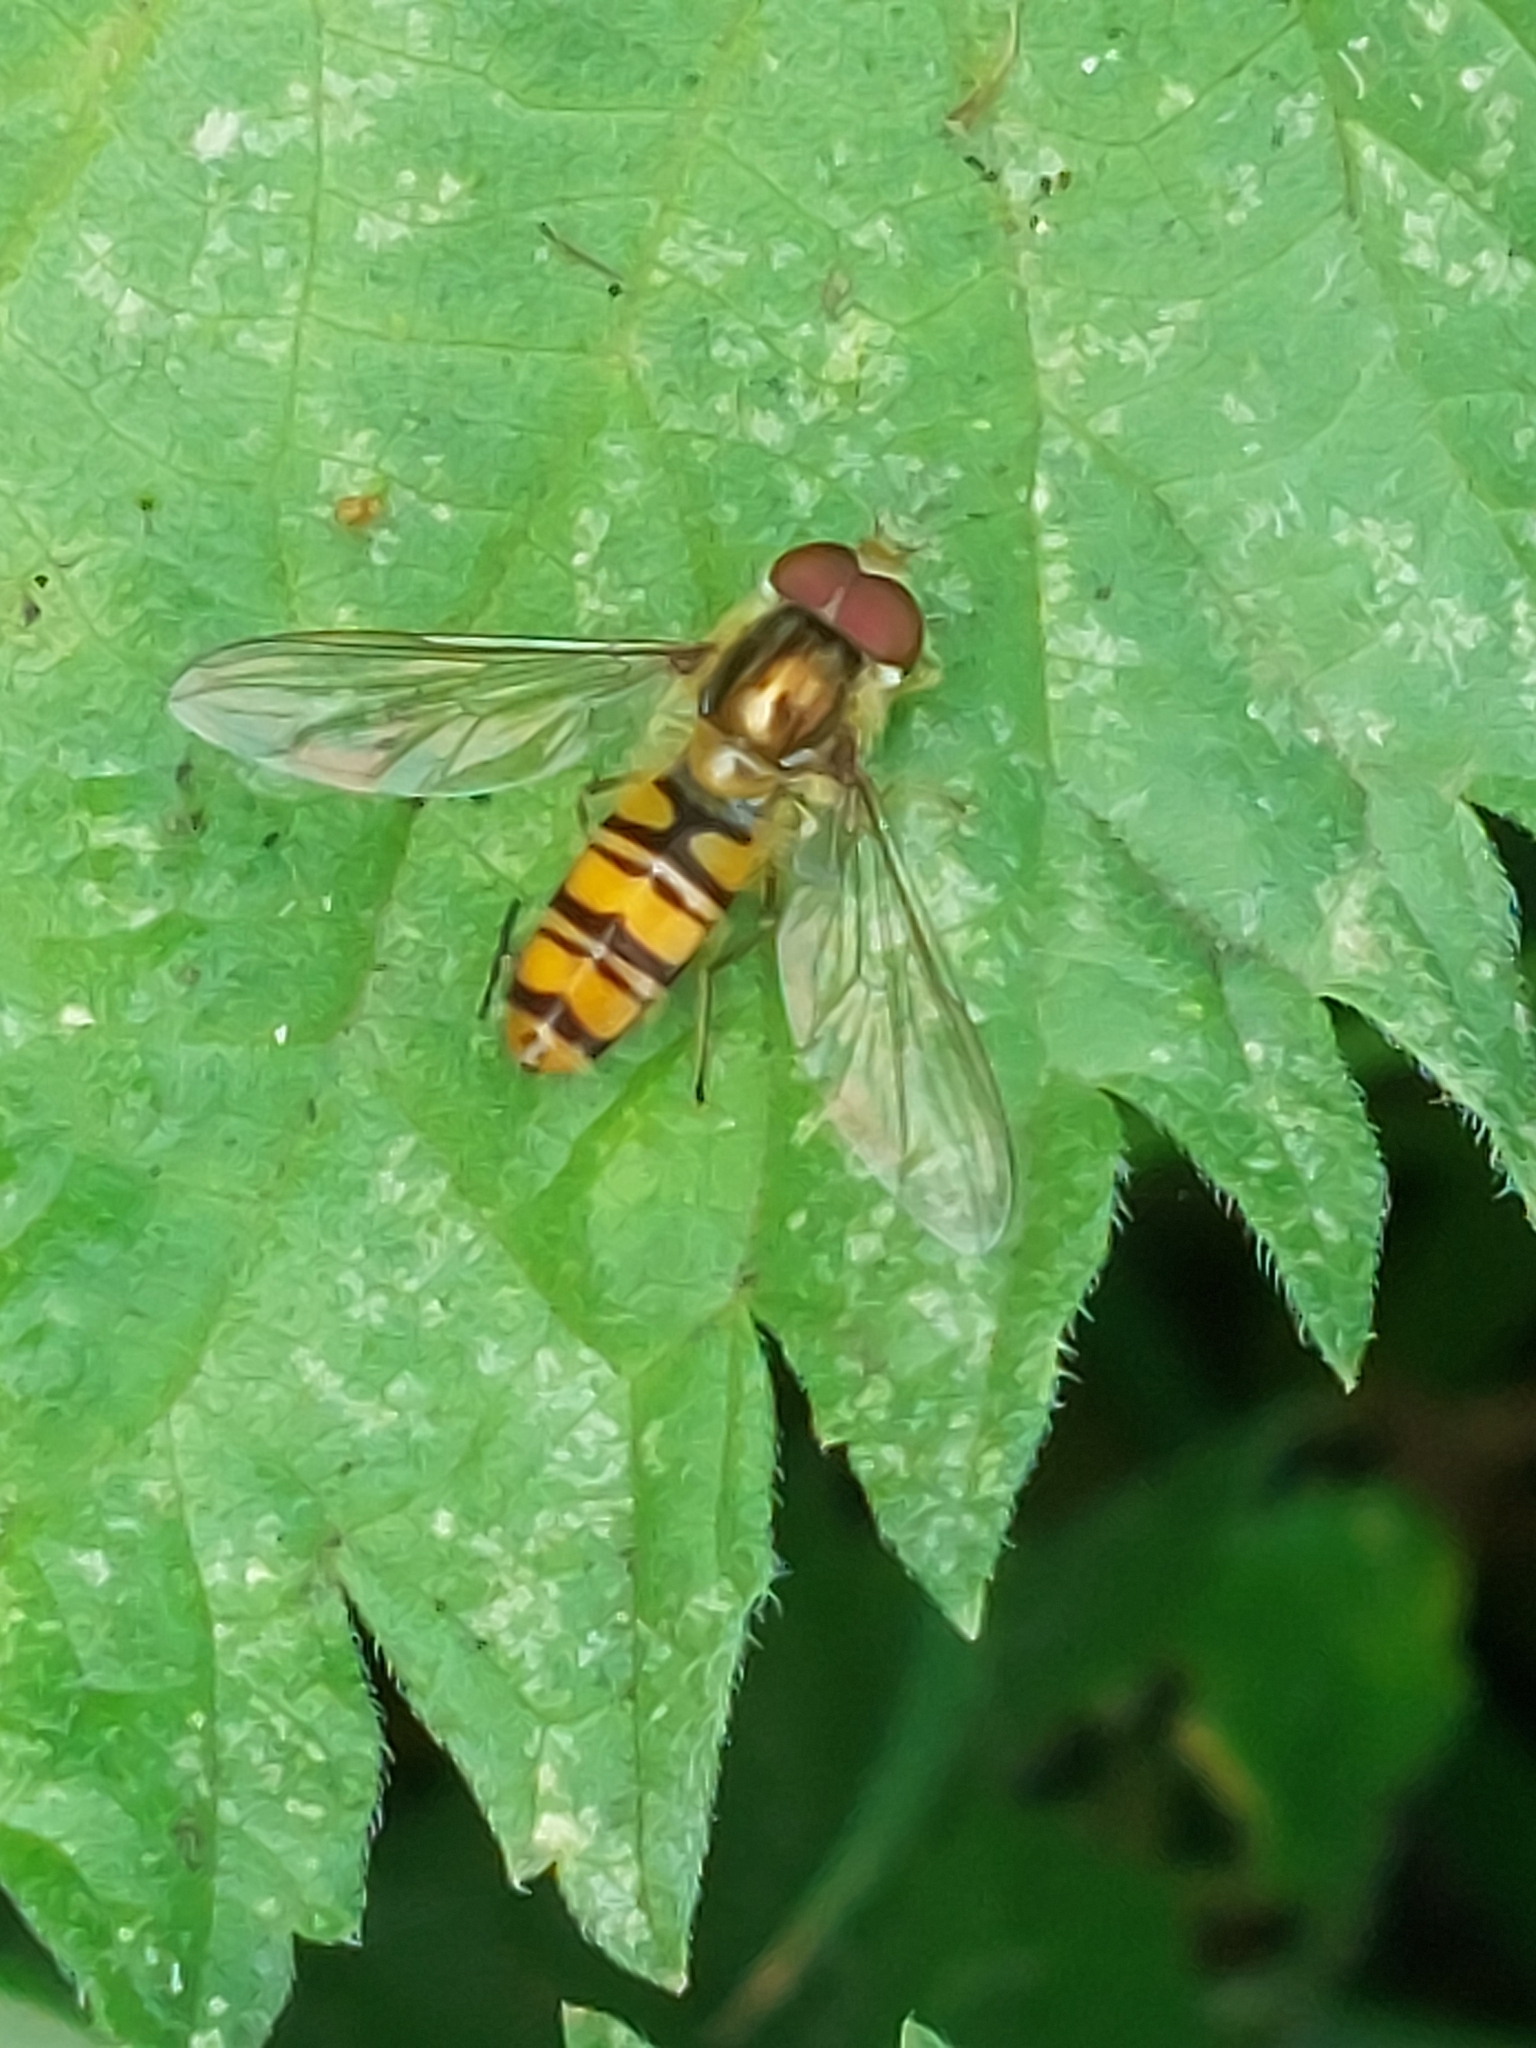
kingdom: Animalia
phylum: Arthropoda
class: Insecta
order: Diptera
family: Syrphidae
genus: Episyrphus
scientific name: Episyrphus balteatus
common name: Marmalade hoverfly
